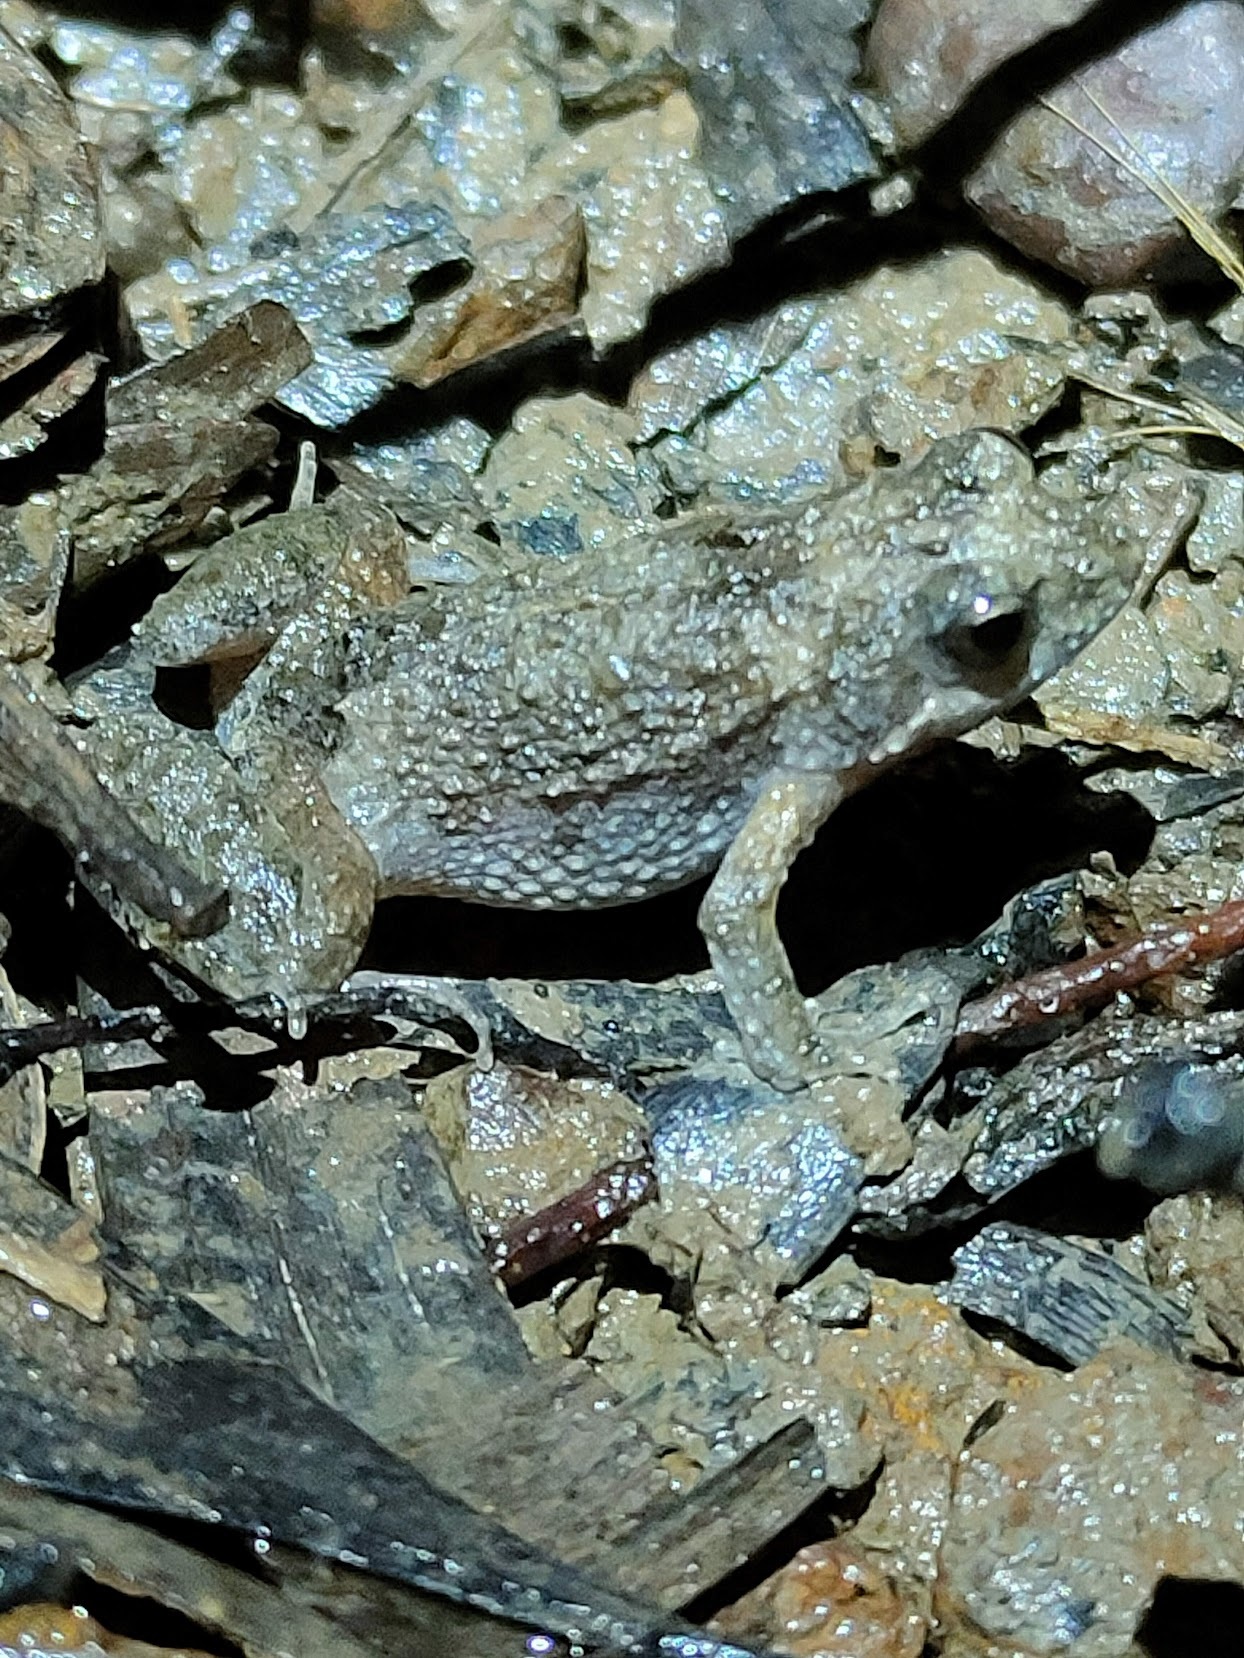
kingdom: Animalia
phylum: Chordata
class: Amphibia
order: Anura
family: Myobatrachidae
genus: Crinia
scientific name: Crinia parinsignifera
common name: Beeping froglet
